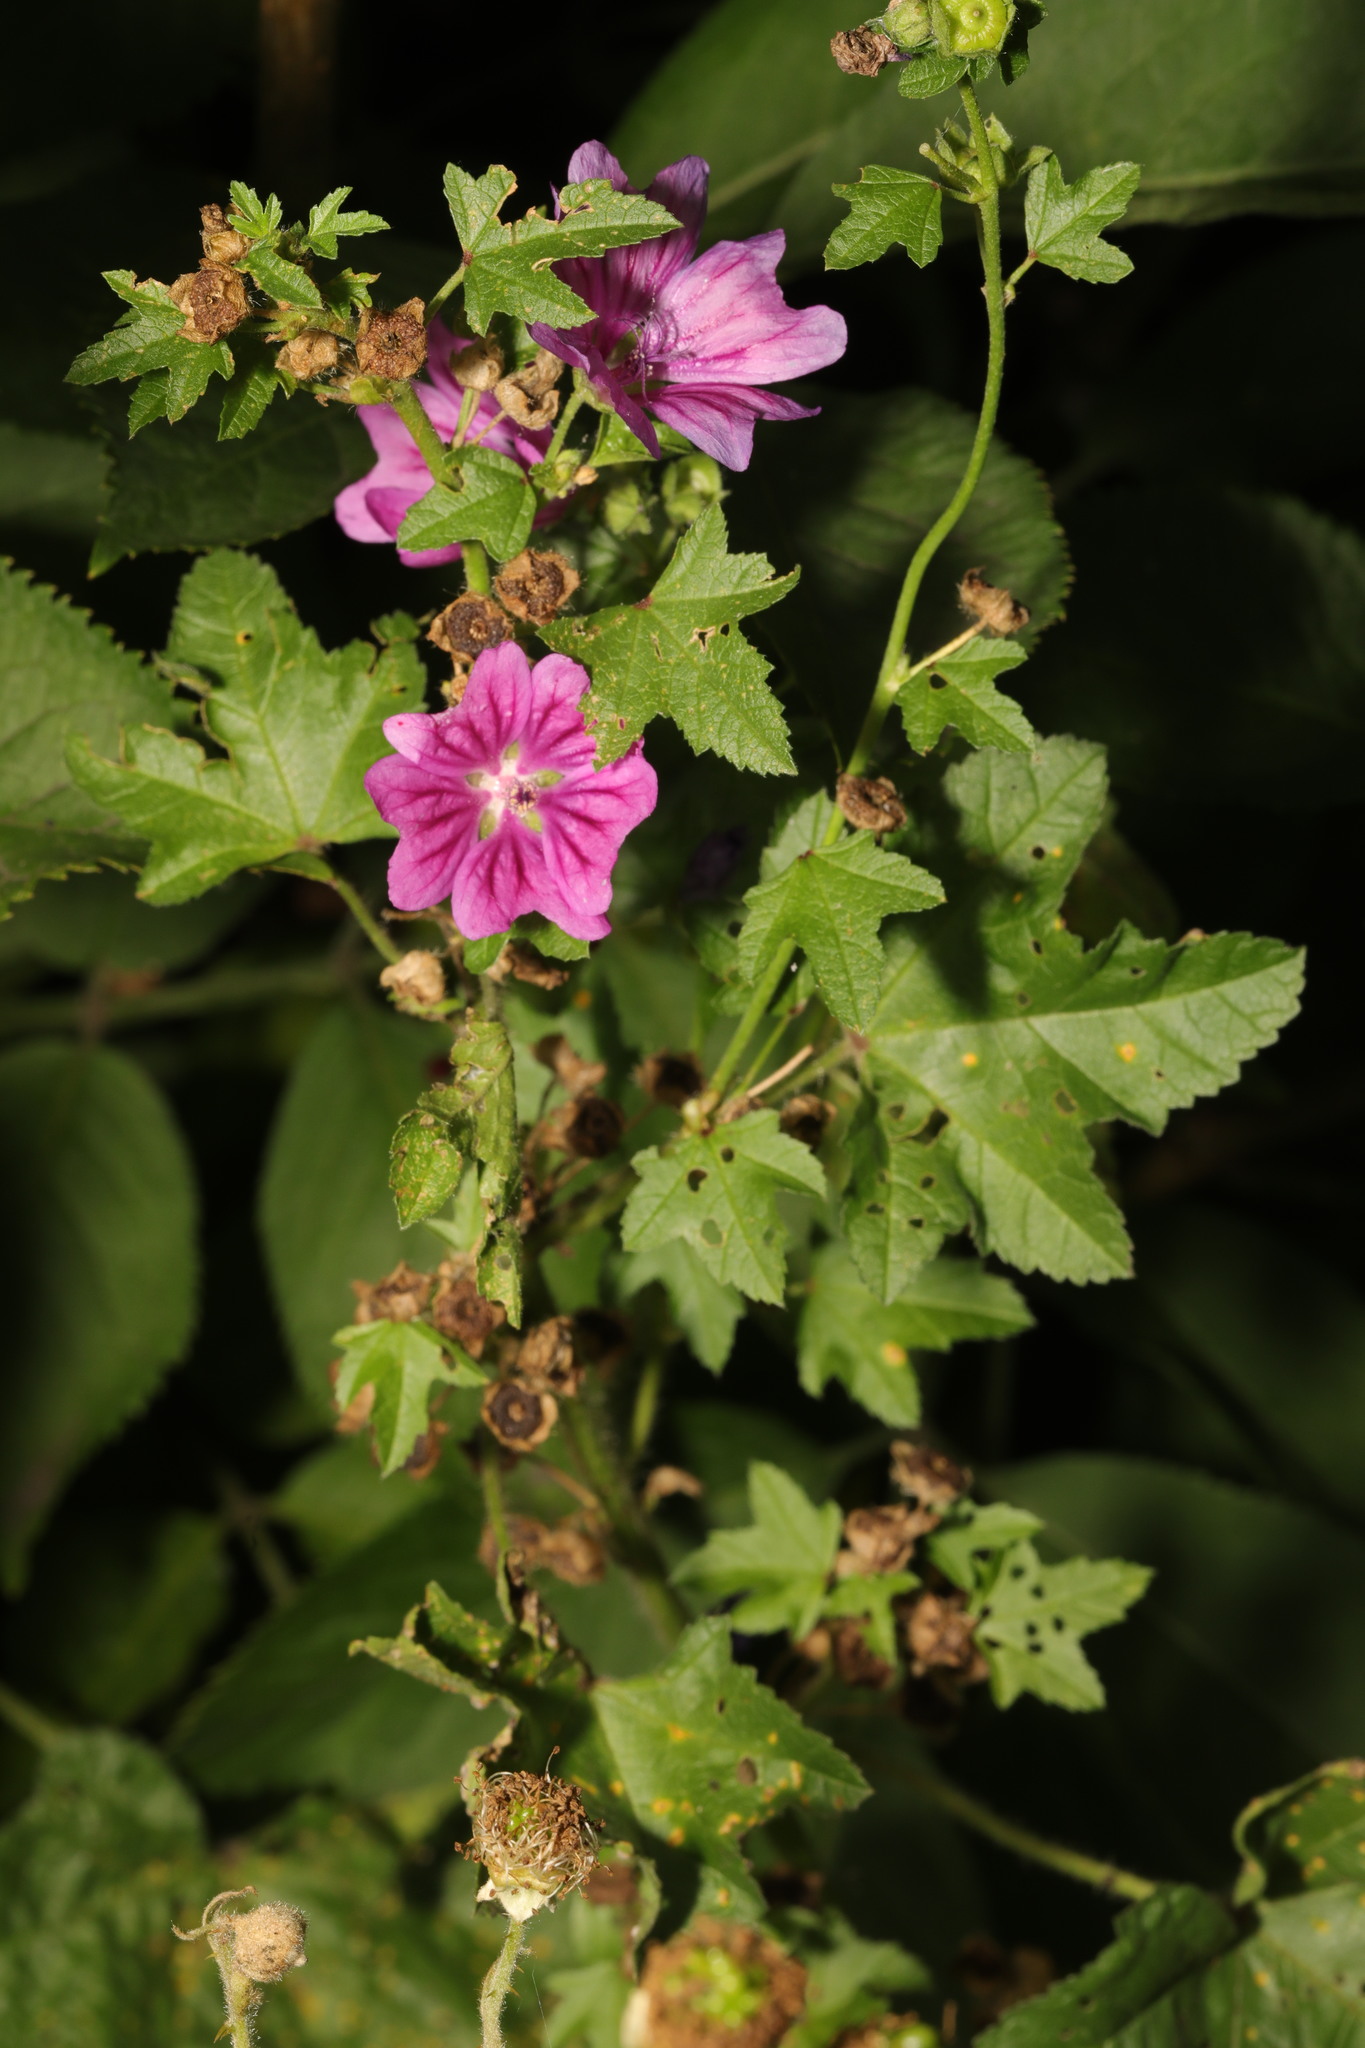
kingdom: Plantae
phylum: Tracheophyta
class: Magnoliopsida
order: Malvales
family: Malvaceae
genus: Malva
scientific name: Malva sylvestris
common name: Common mallow
